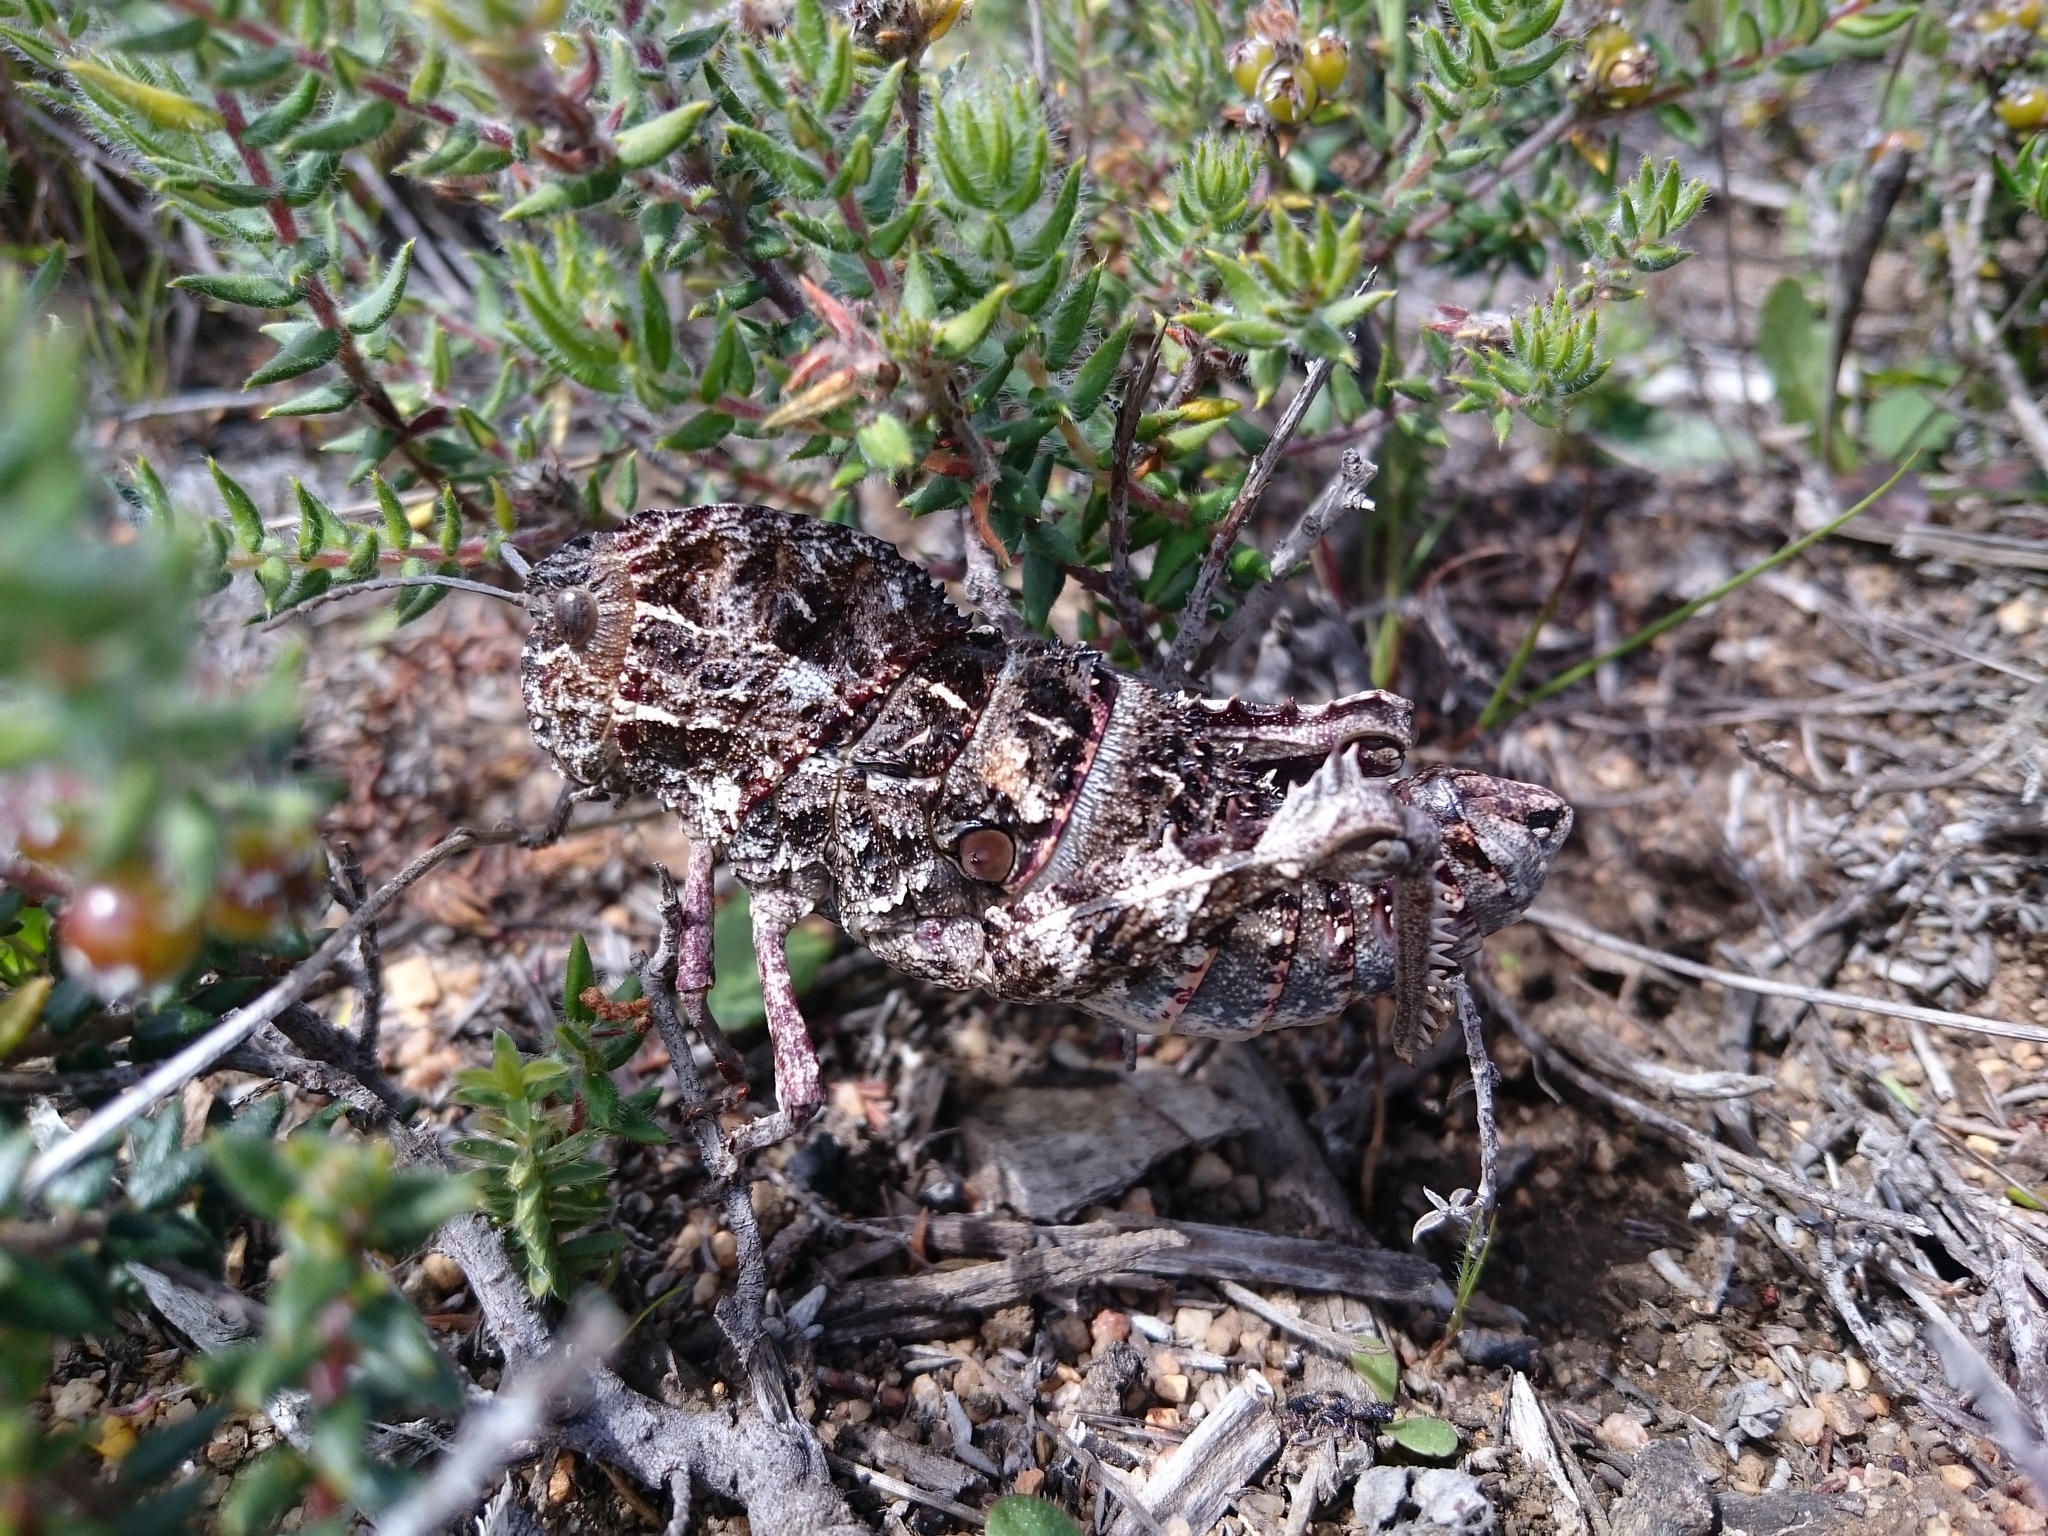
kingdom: Animalia
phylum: Arthropoda
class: Insecta
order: Orthoptera
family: Pamphagidae
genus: Porthetis
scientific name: Porthetis carinata
